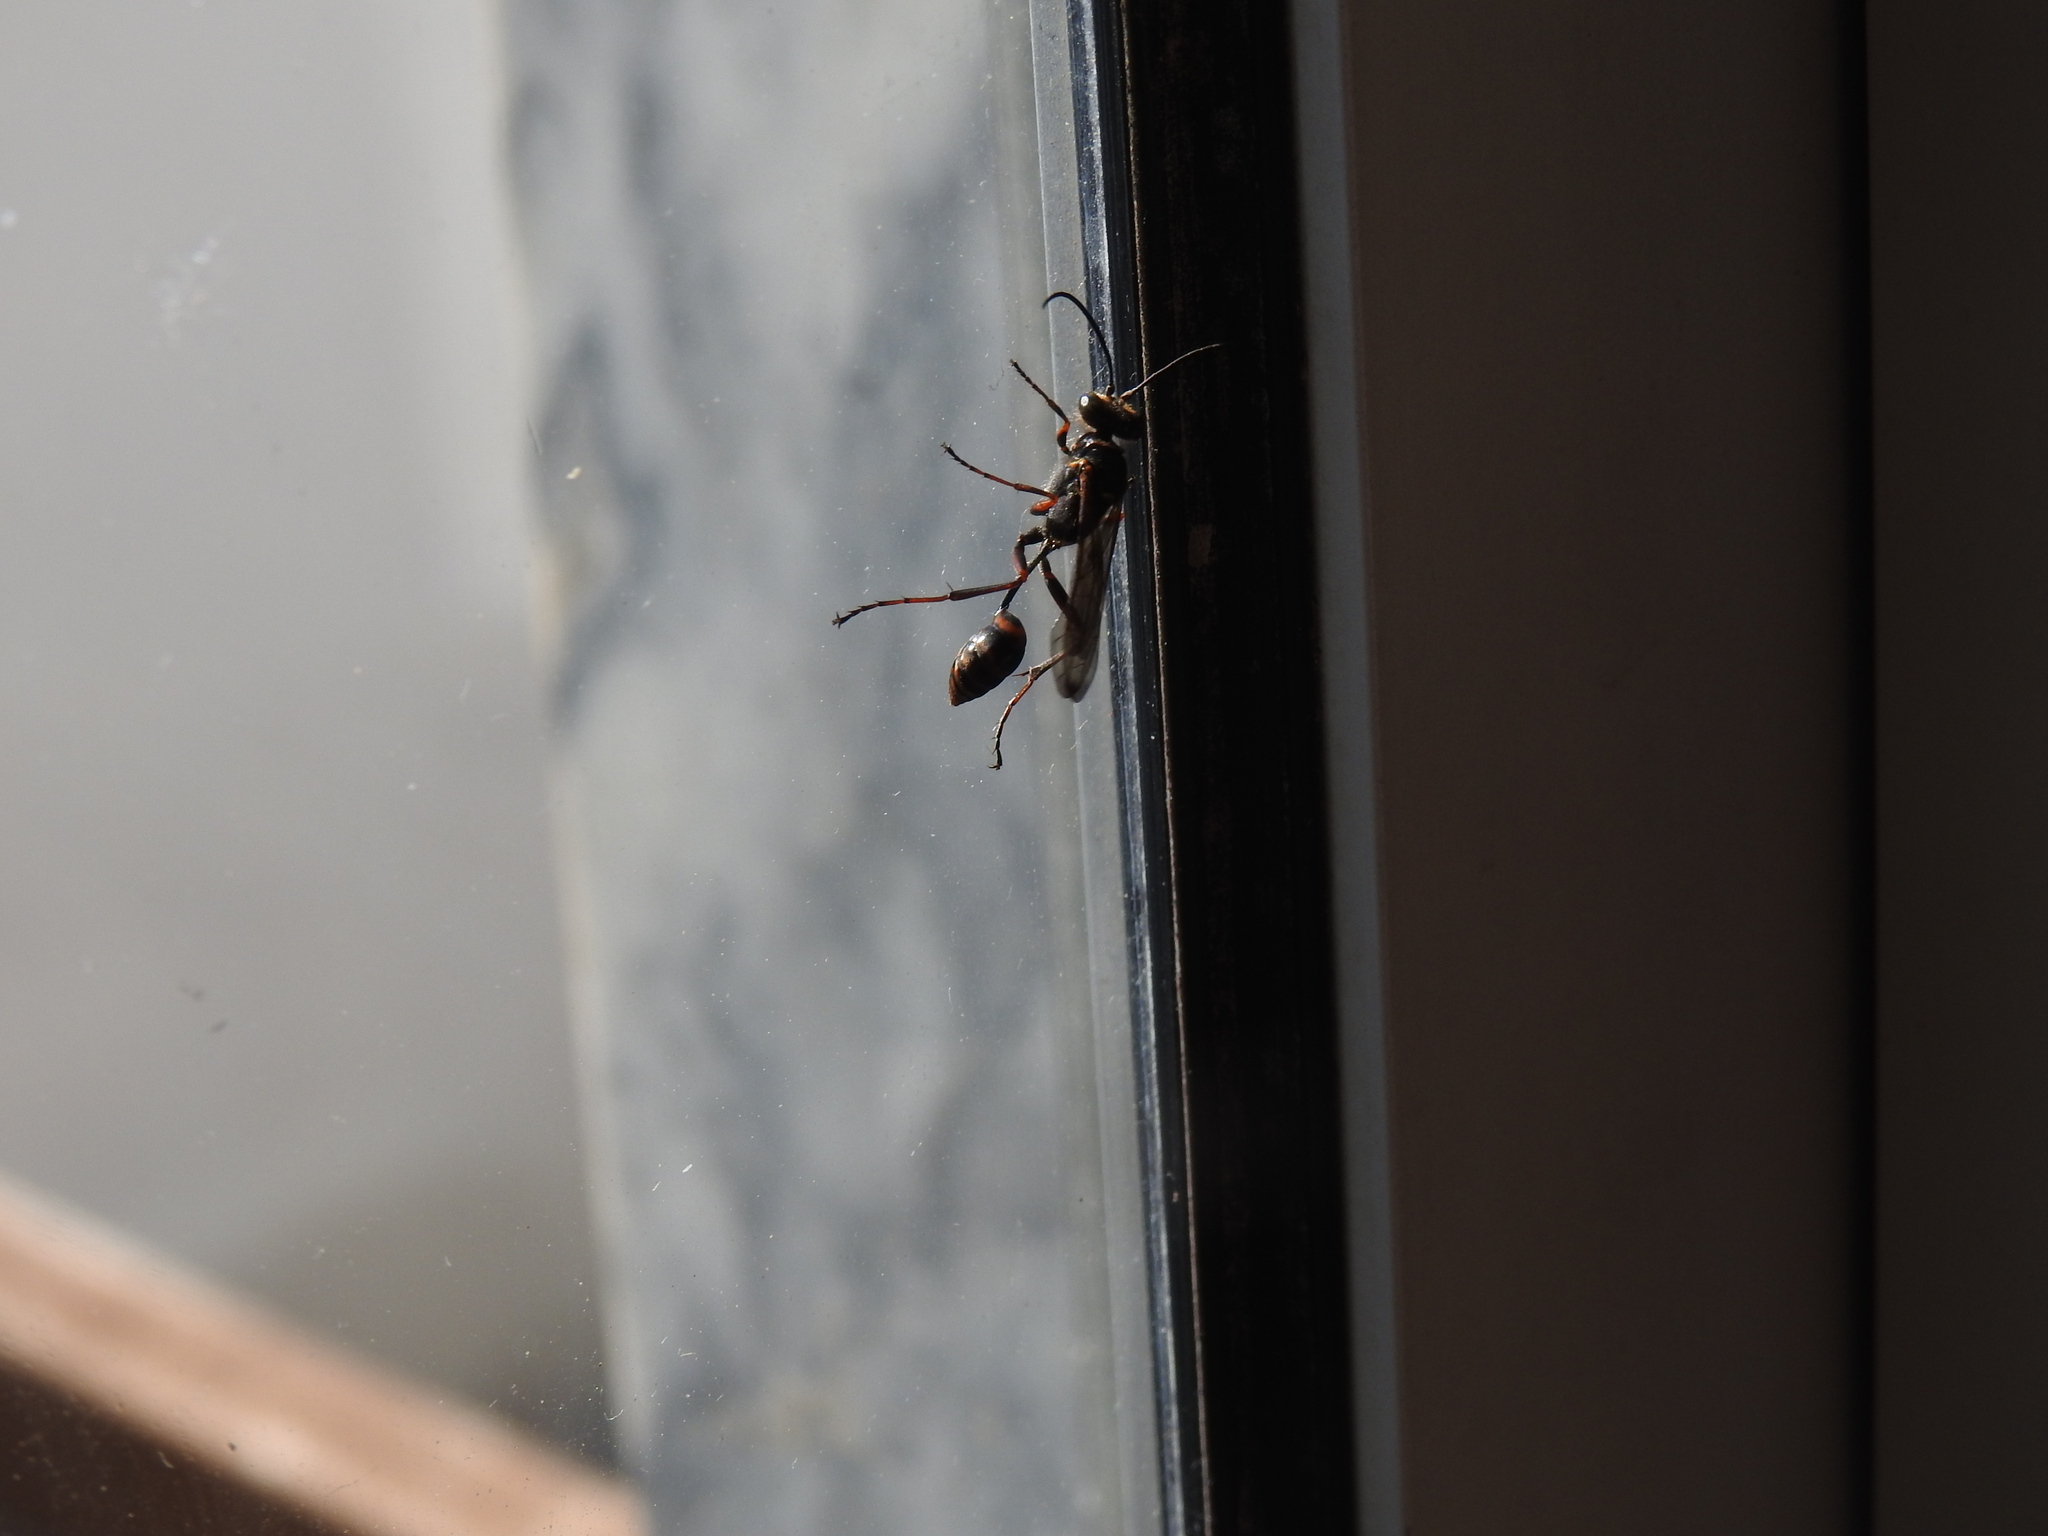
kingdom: Animalia
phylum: Arthropoda
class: Insecta
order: Hymenoptera
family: Sphecidae
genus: Sceliphron
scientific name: Sceliphron curvatum
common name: Pèlopèe
